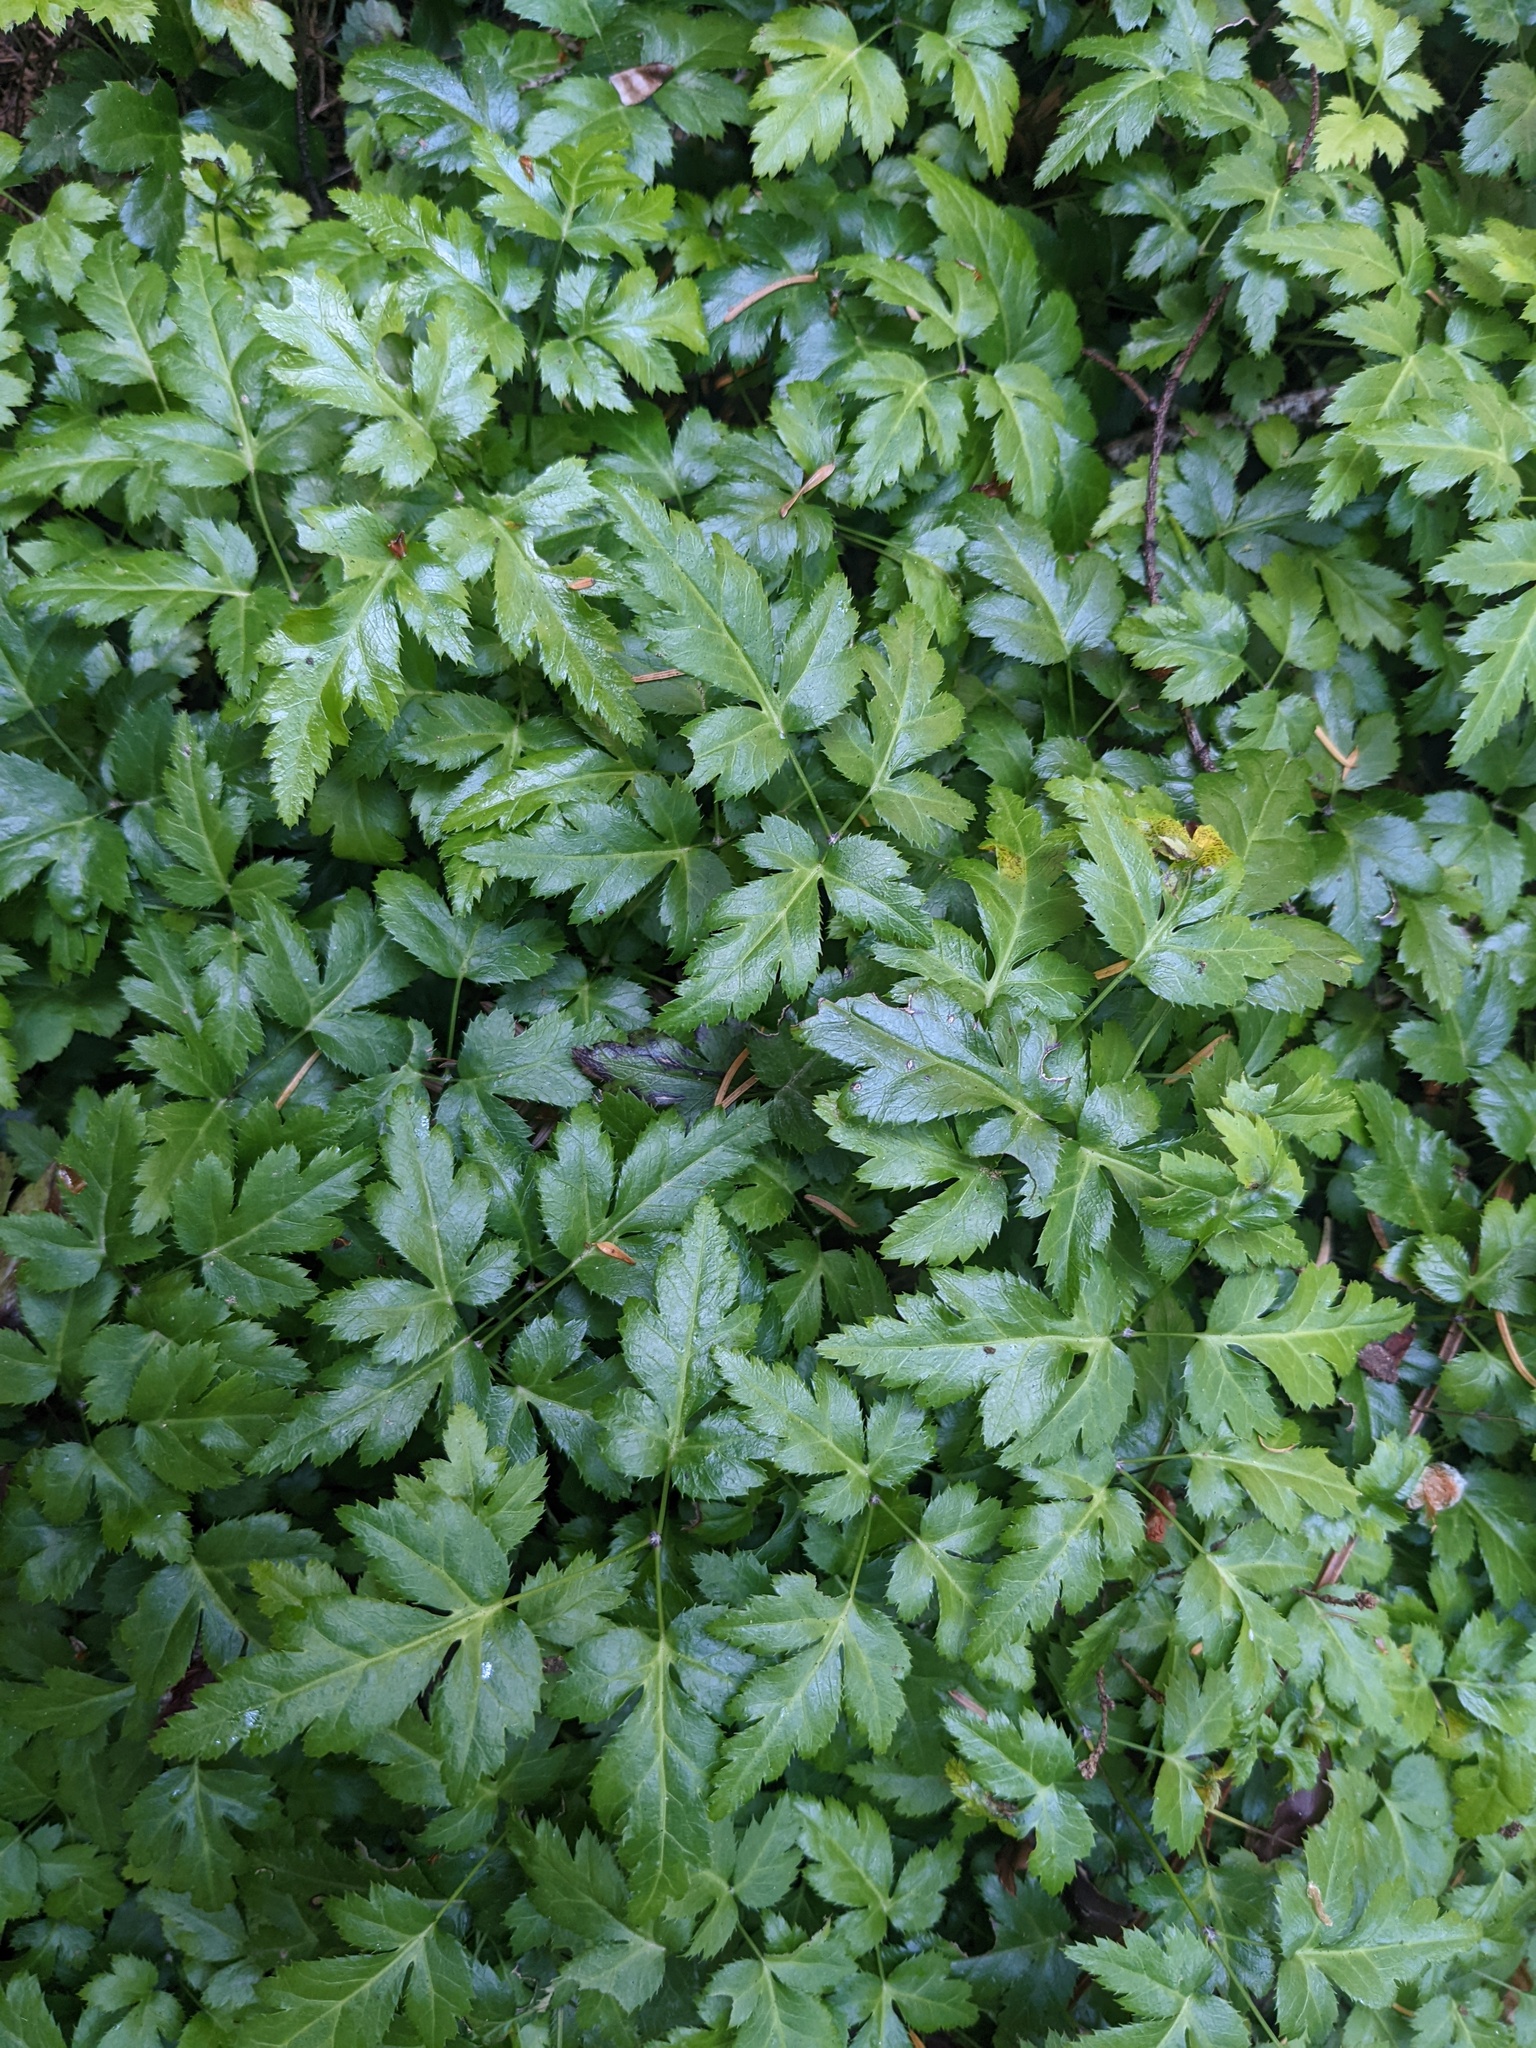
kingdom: Plantae
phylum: Tracheophyta
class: Magnoliopsida
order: Ranunculales
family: Ranunculaceae
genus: Coptis
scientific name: Coptis laciniata
